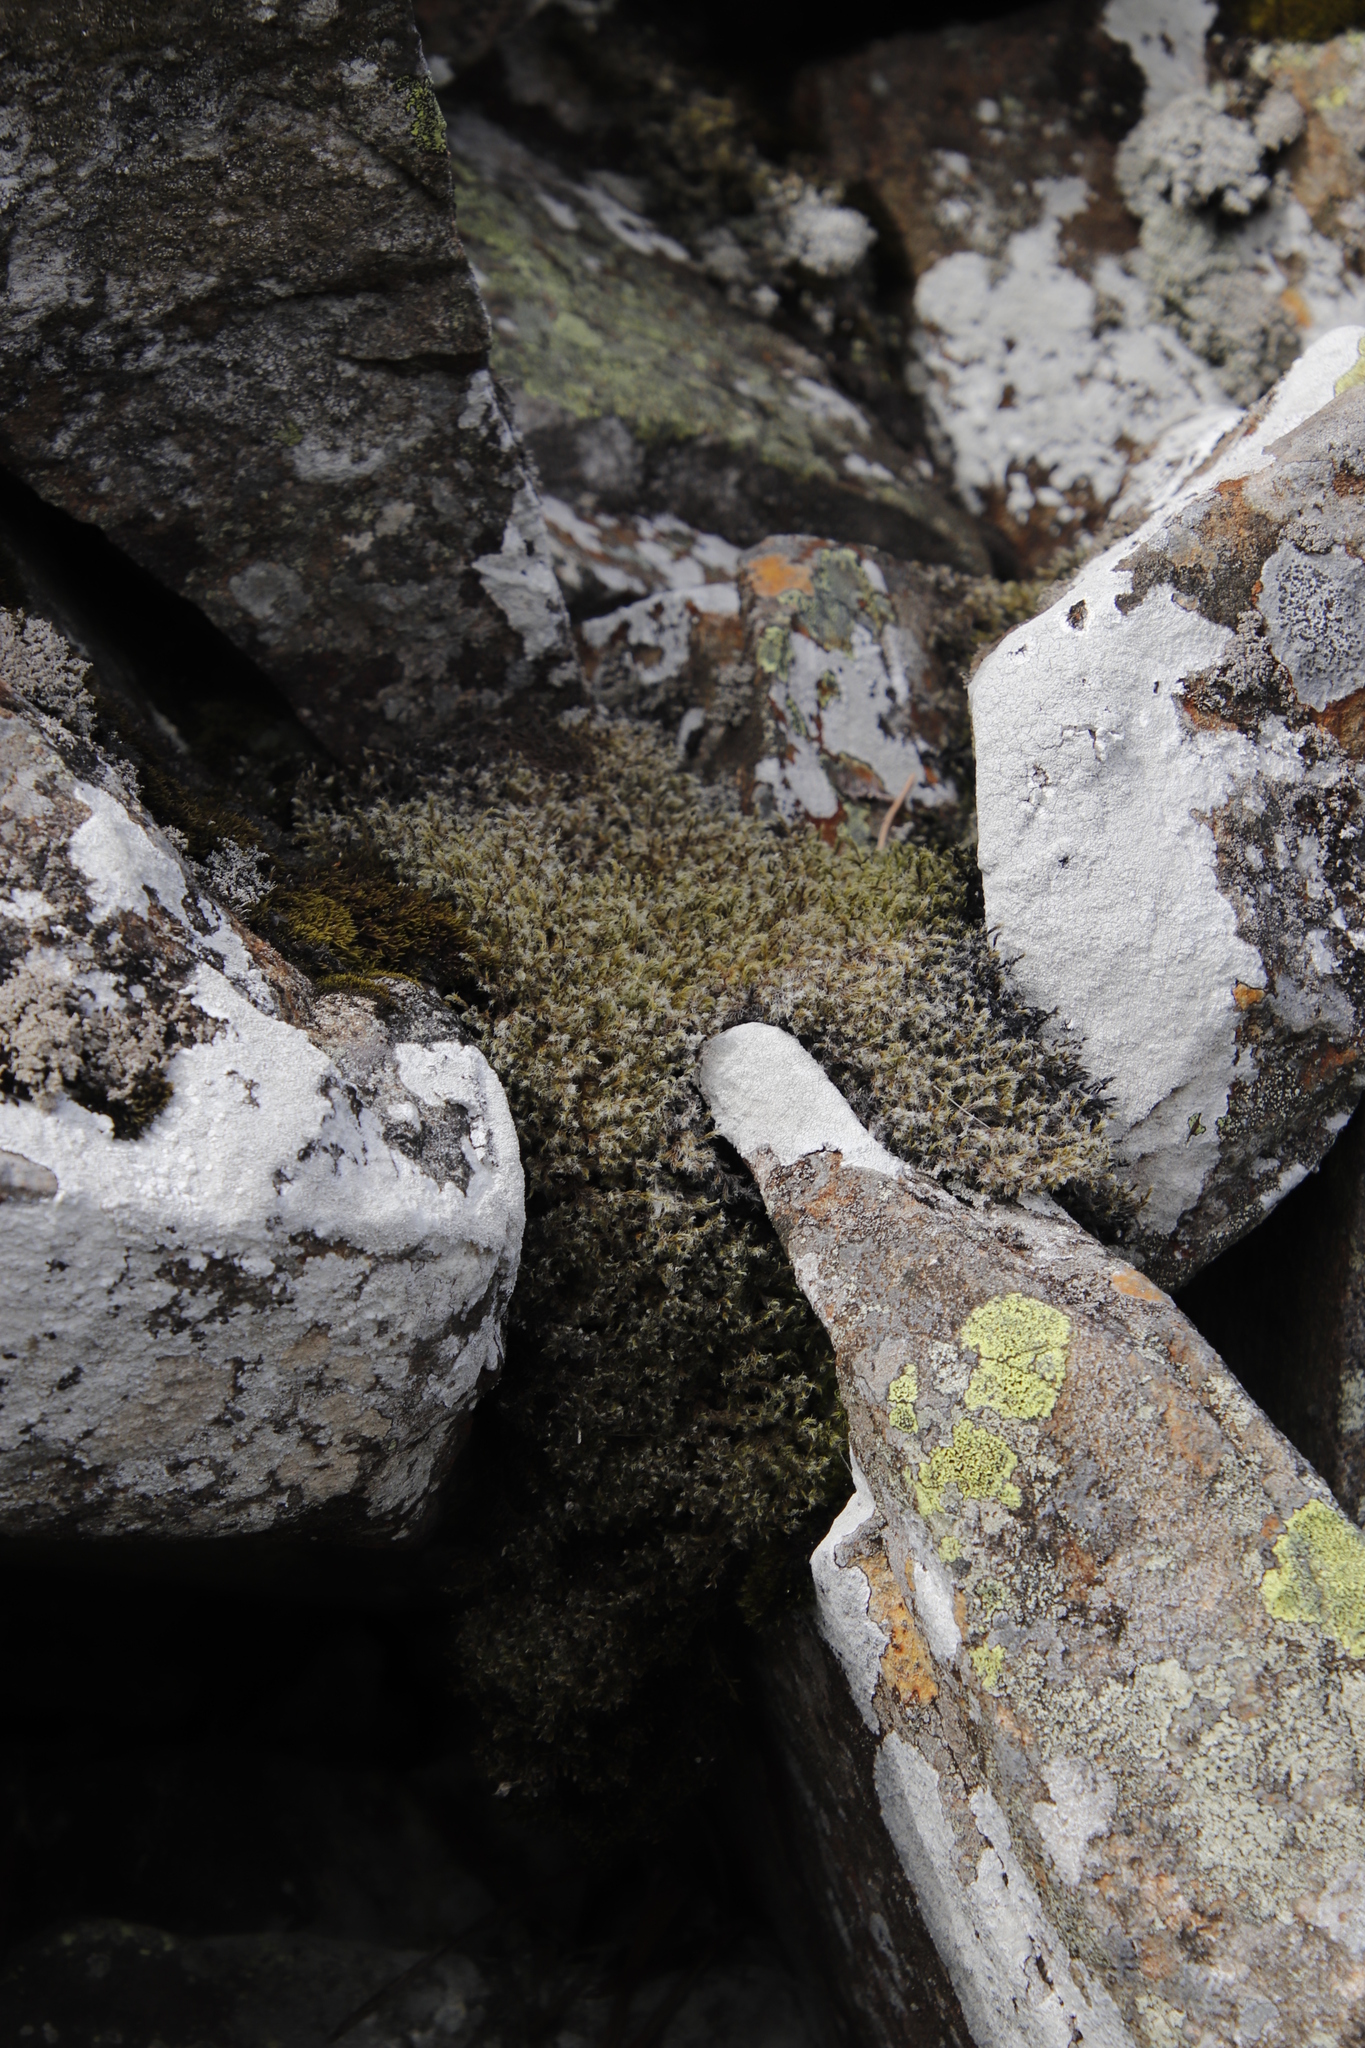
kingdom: Plantae
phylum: Bryophyta
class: Bryopsida
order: Grimmiales
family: Grimmiaceae
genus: Racomitrium
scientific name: Racomitrium lanuginosum
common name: Hoary rock moss
